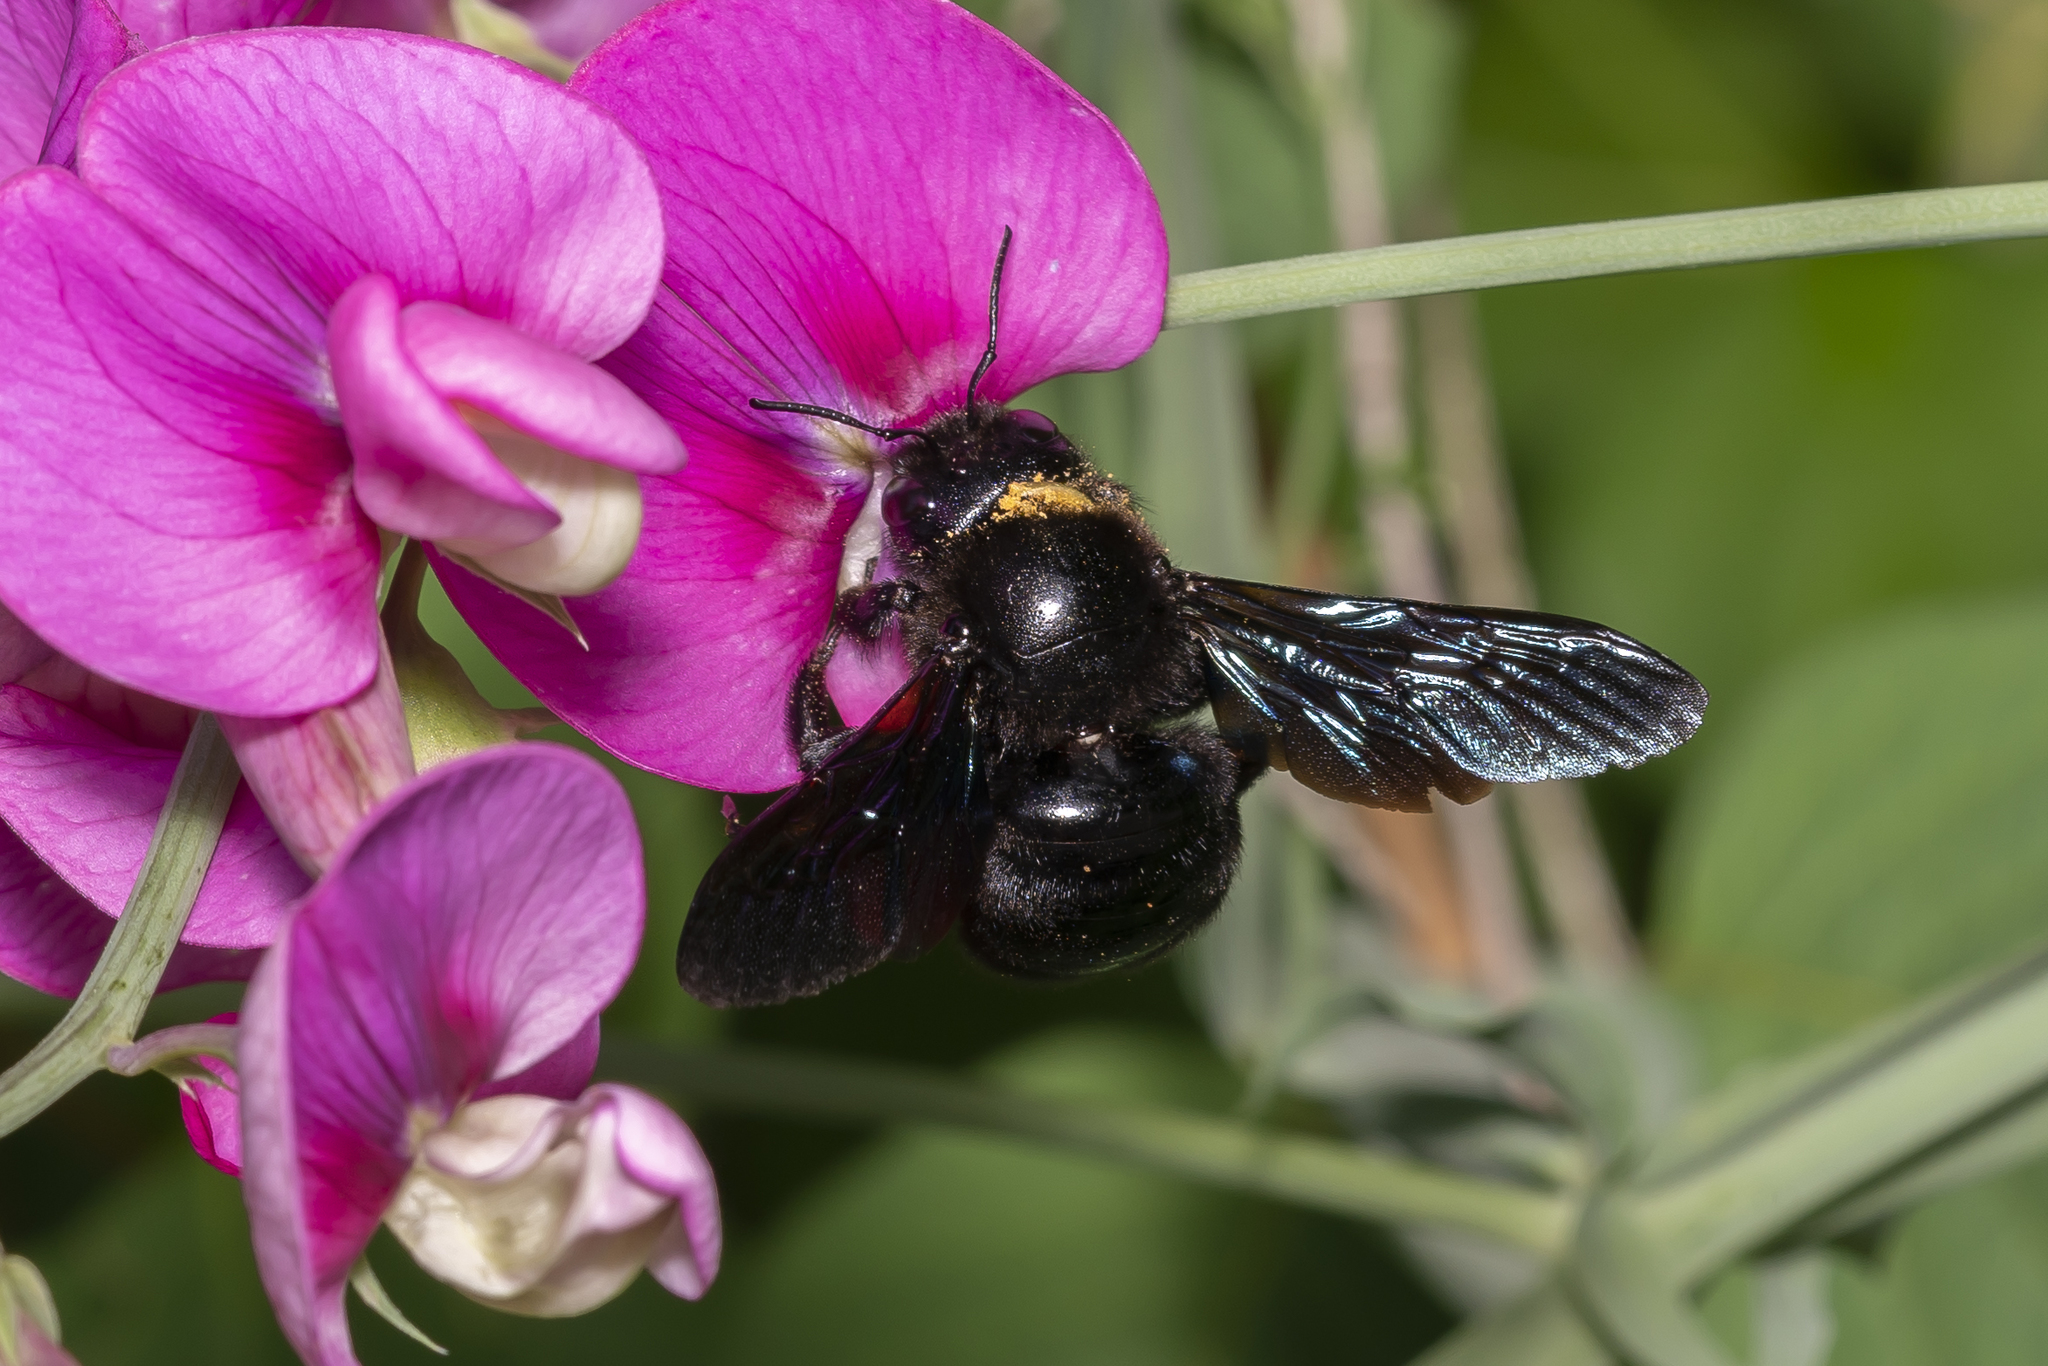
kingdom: Animalia
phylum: Arthropoda
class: Insecta
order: Hymenoptera
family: Apidae
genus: Xylocopa
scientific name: Xylocopa violacea
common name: Violet carpenter bee
